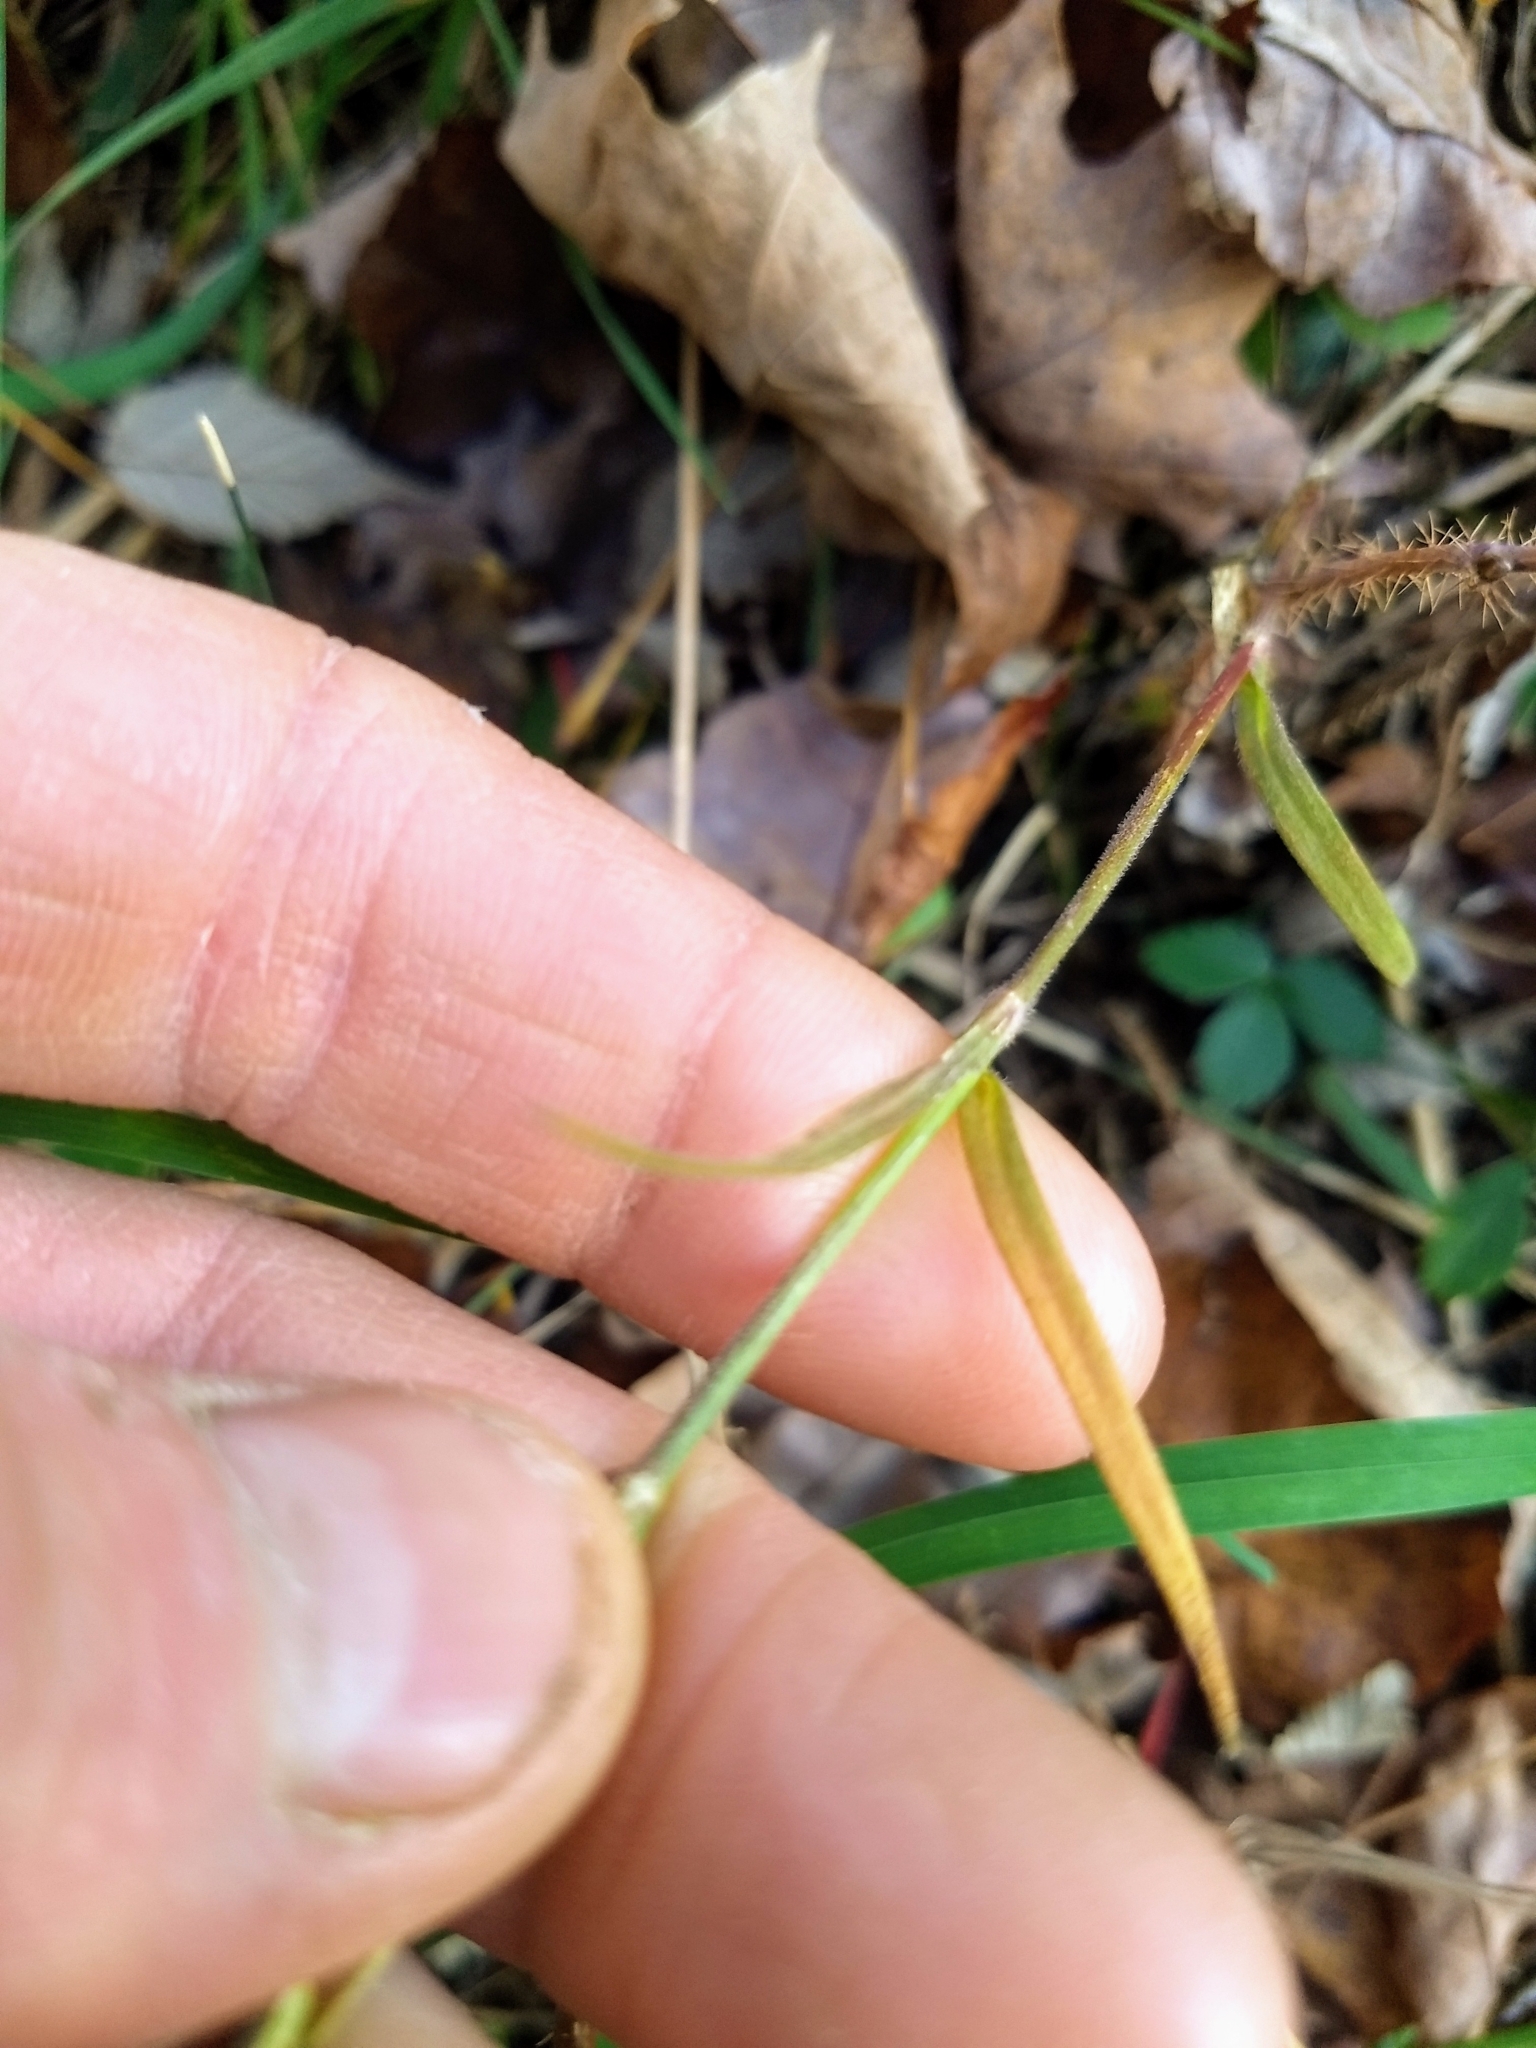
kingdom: Plantae
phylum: Tracheophyta
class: Magnoliopsida
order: Caryophyllales
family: Caryophyllaceae
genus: Dianthus
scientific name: Dianthus armeria
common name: Deptford pink
